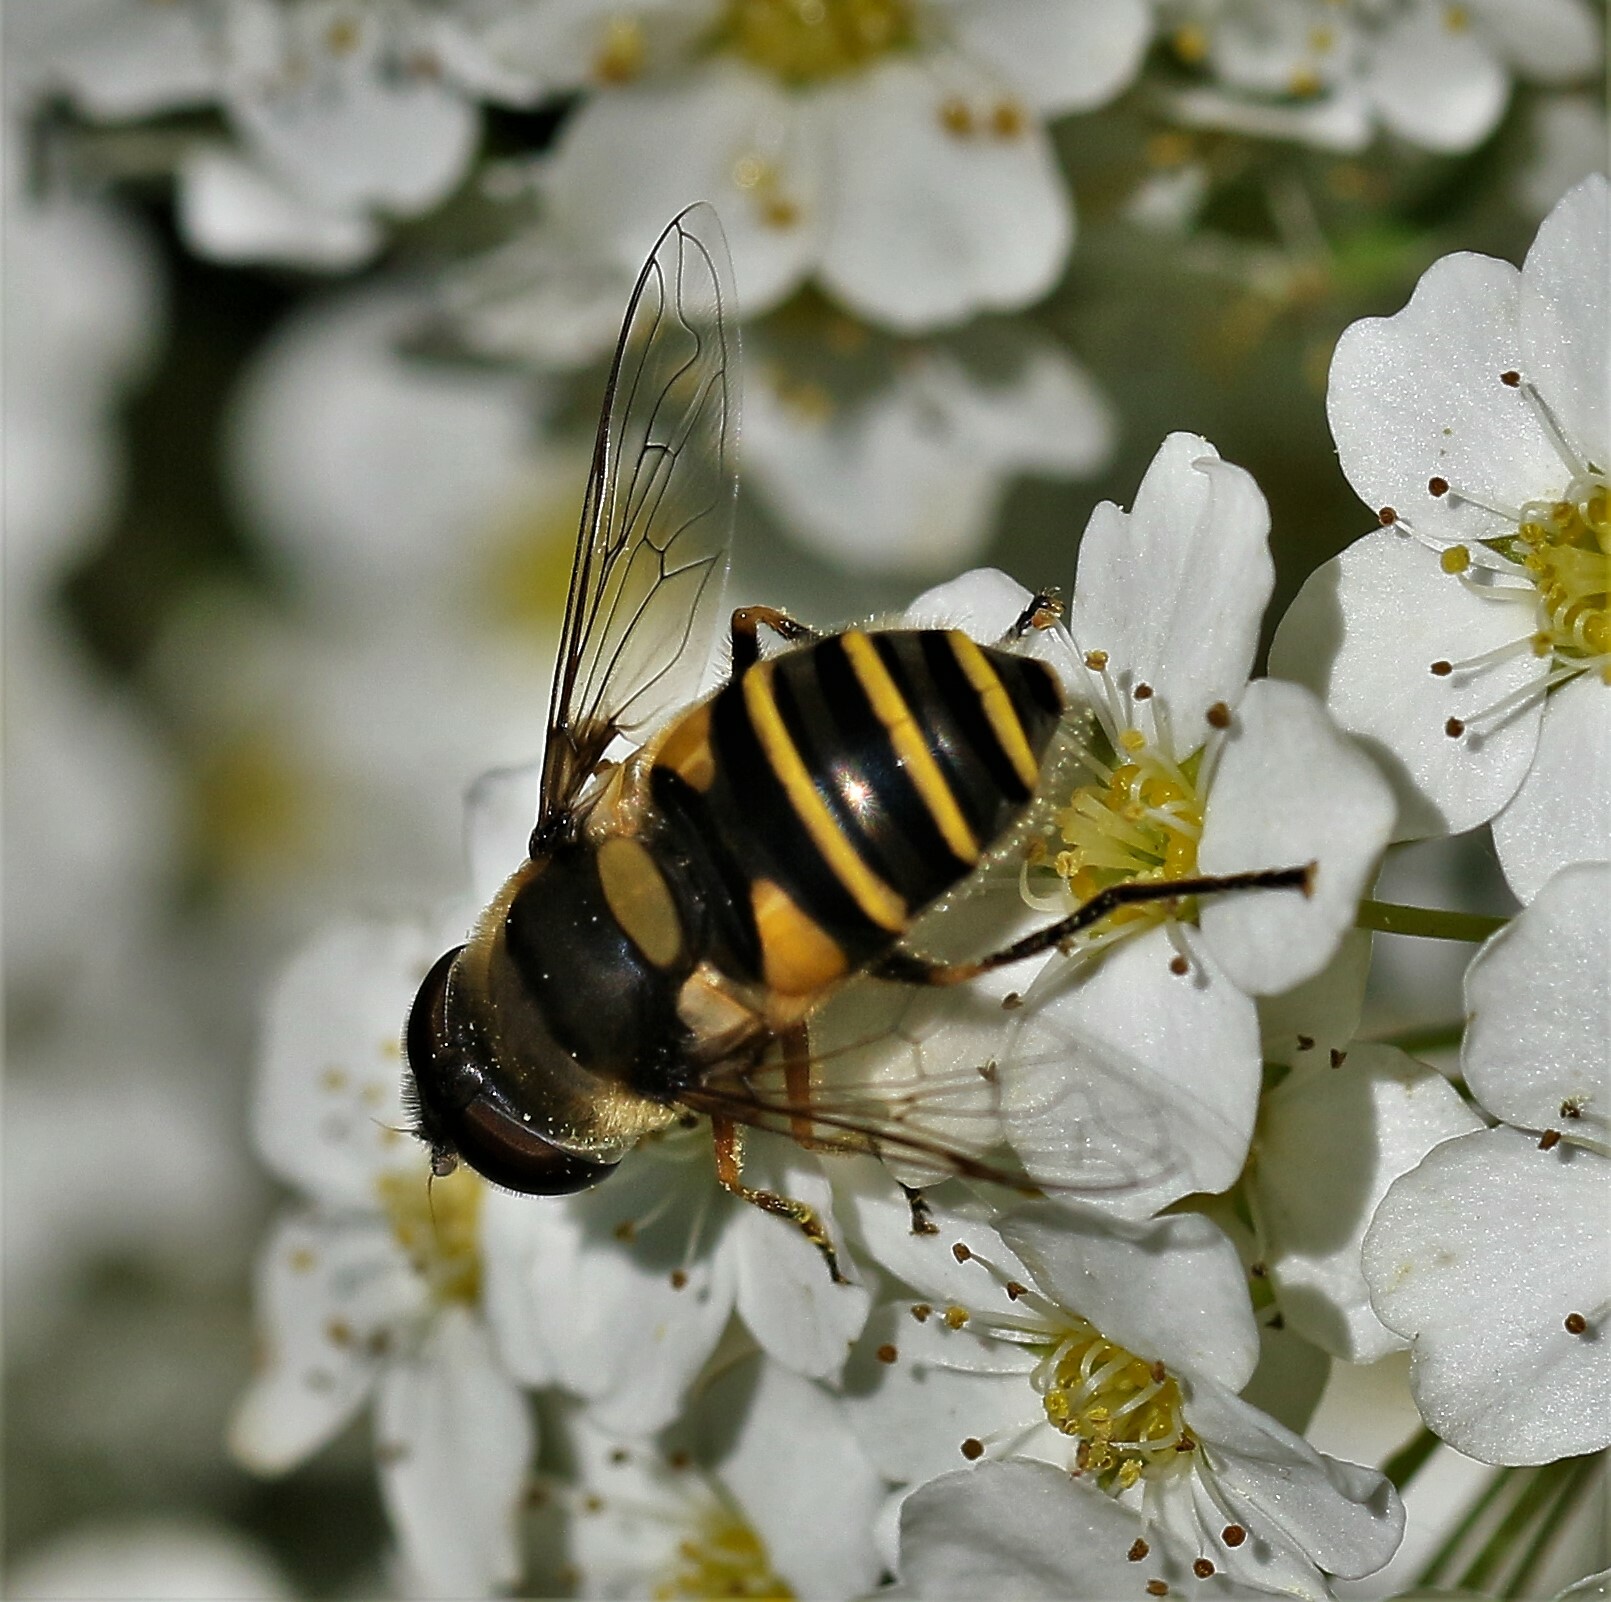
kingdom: Animalia
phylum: Arthropoda
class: Insecta
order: Diptera
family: Syrphidae
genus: Eristalis
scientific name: Eristalis transversa
